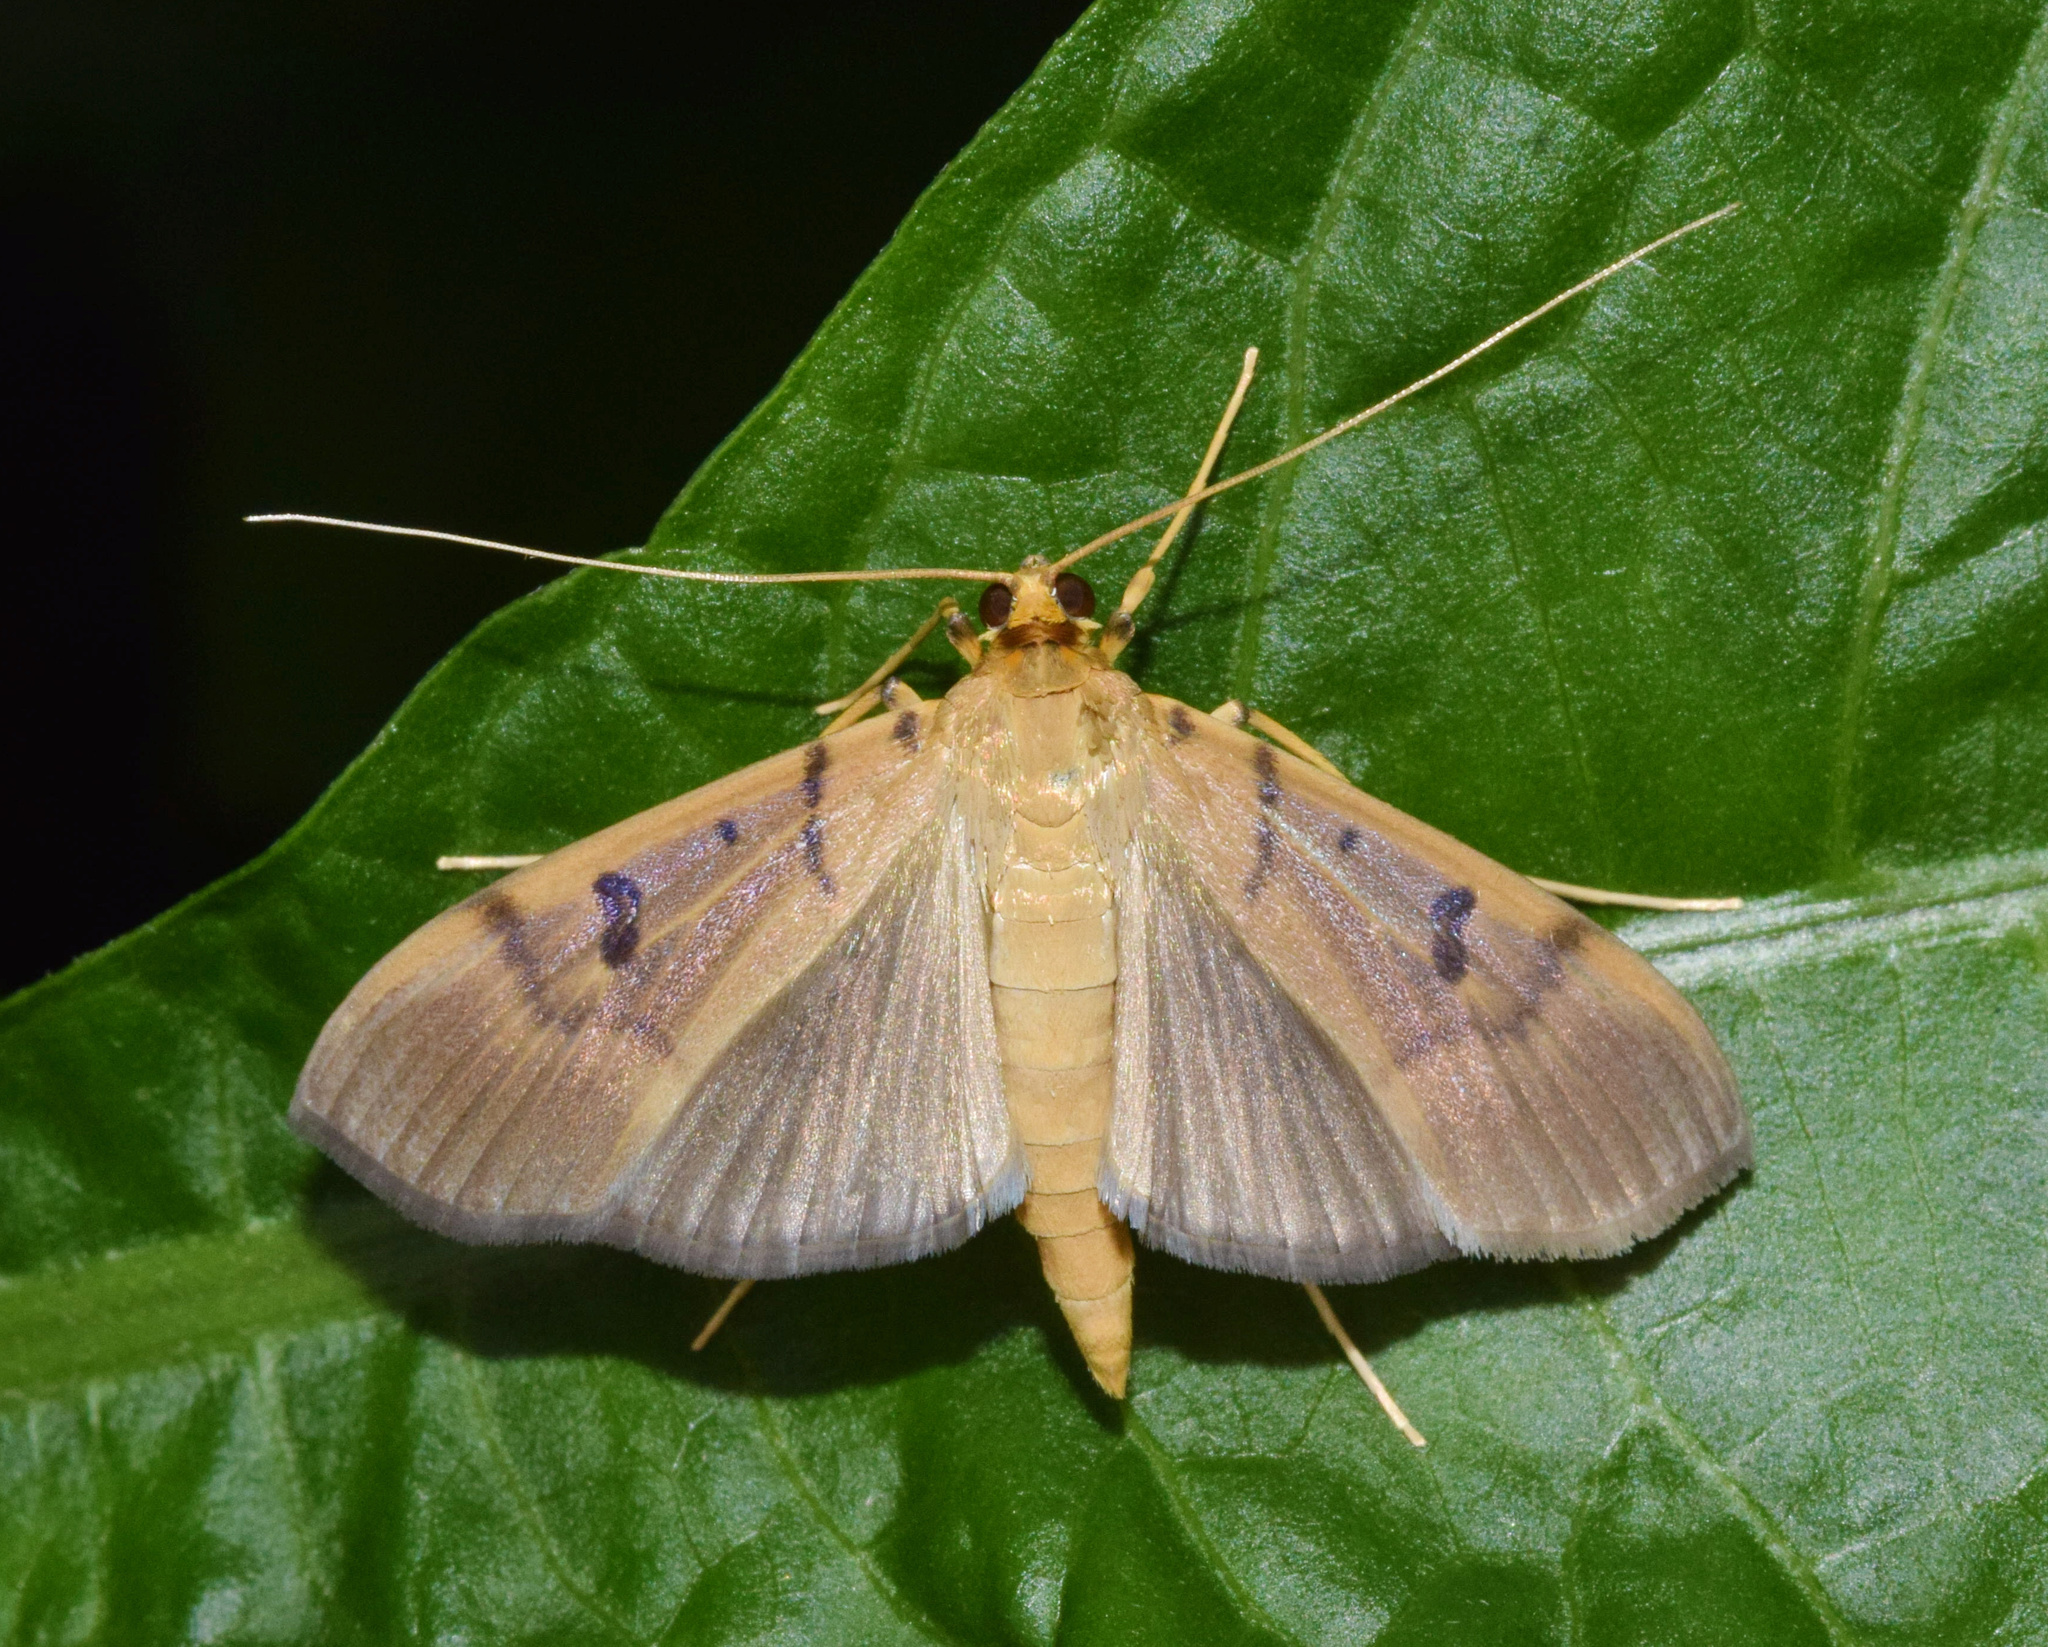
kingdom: Animalia
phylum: Arthropoda
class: Insecta
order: Lepidoptera
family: Crambidae
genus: Syllepte
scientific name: Syllepte glebalis
